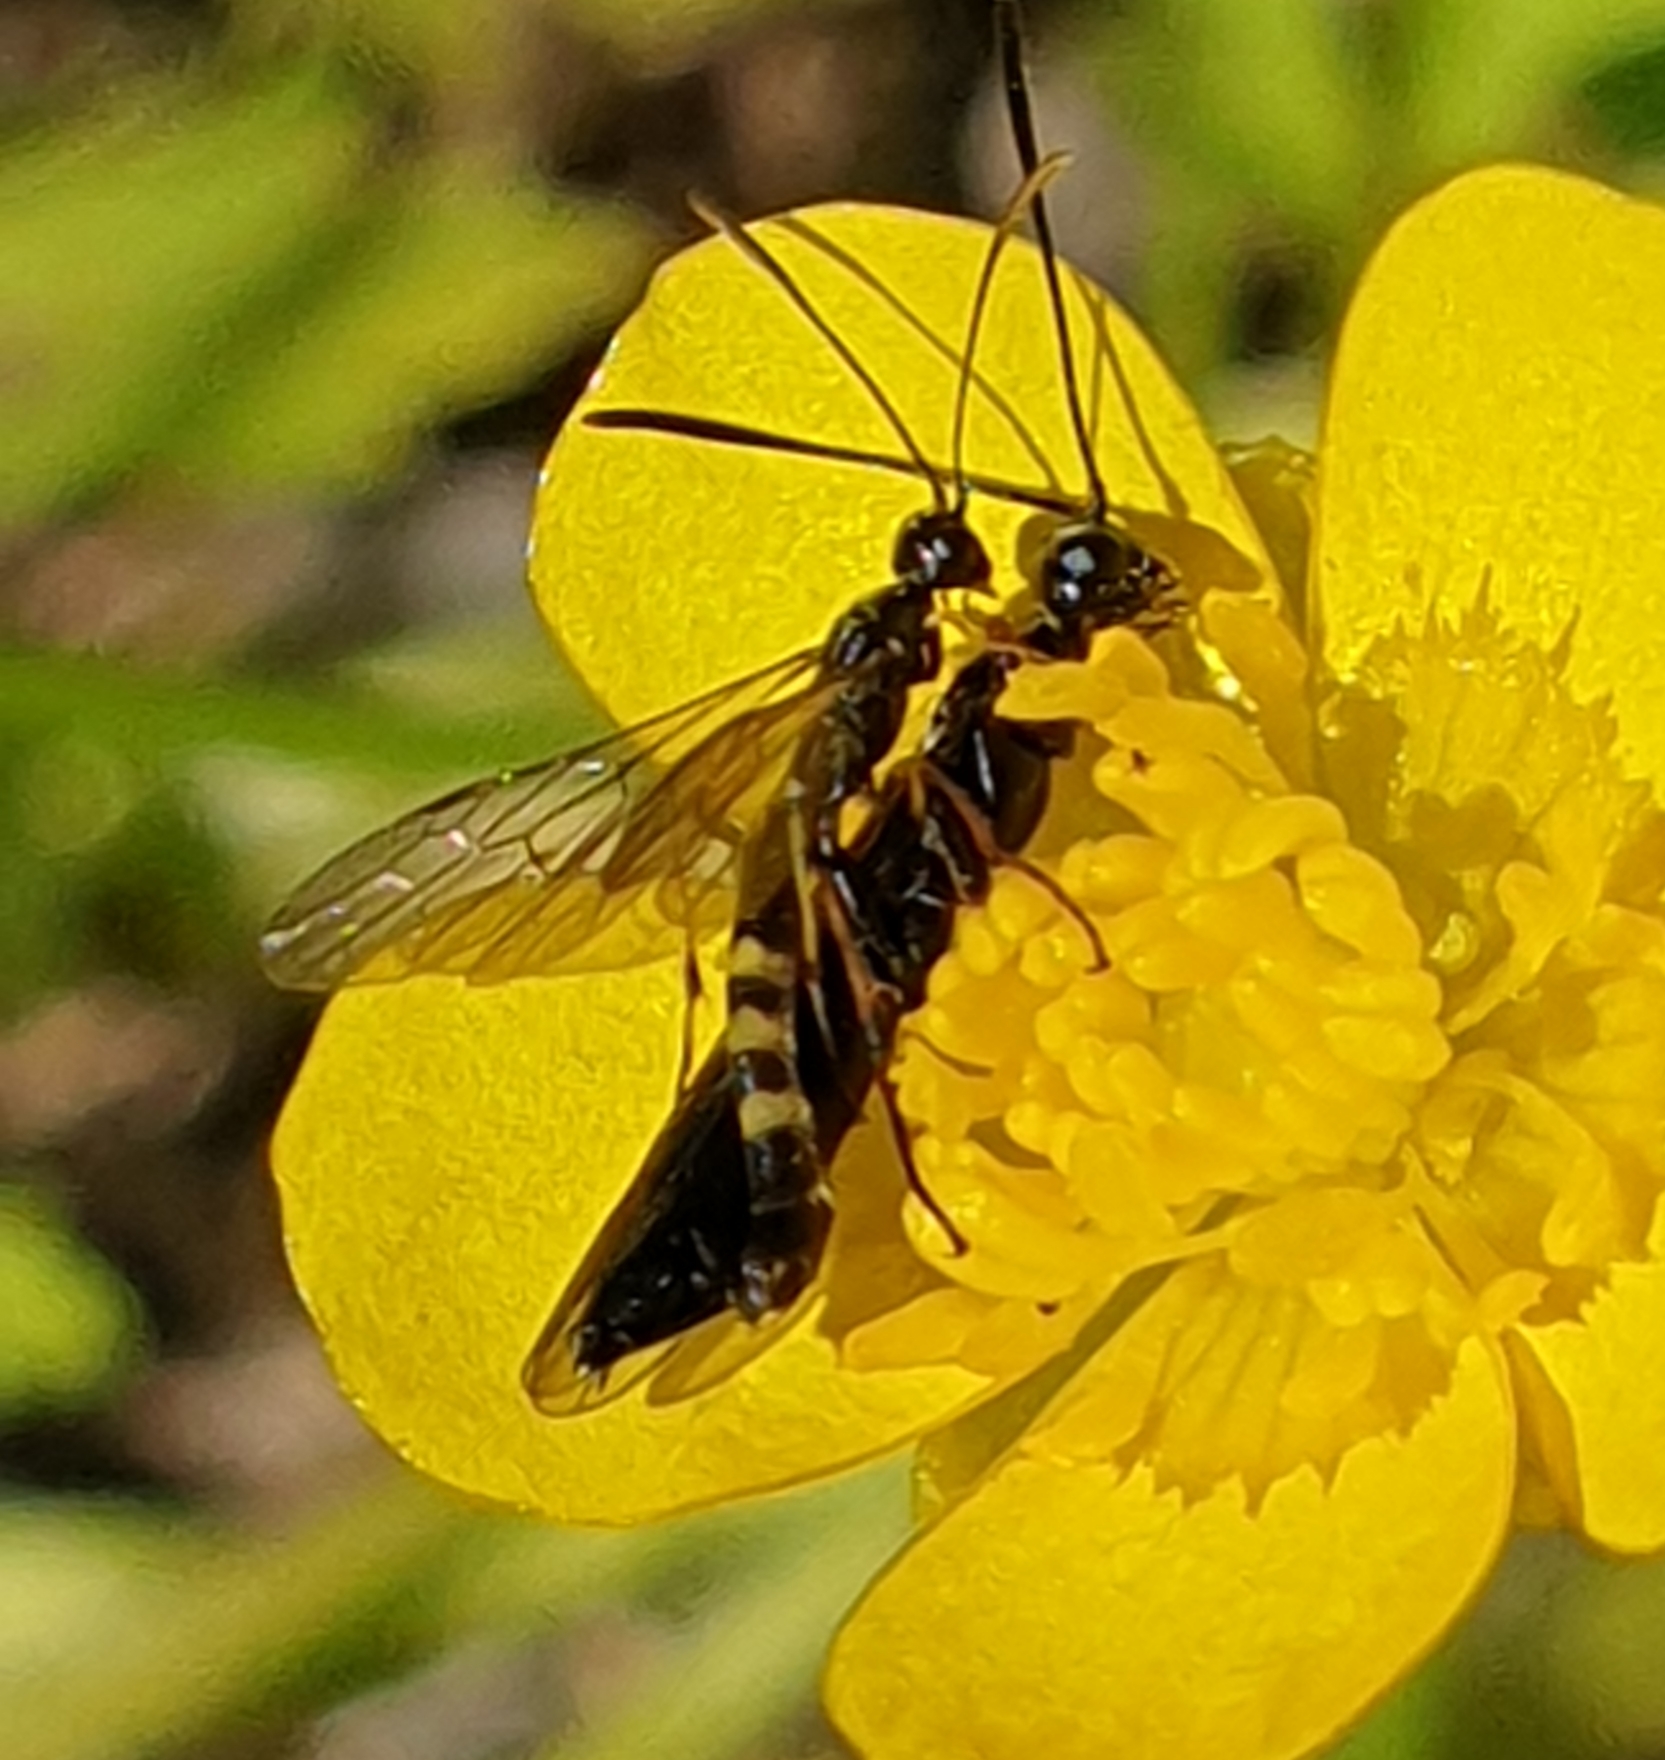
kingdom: Animalia
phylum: Arthropoda
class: Insecta
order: Hymenoptera
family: Cephidae
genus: Calameuta
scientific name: Calameuta pallipes
